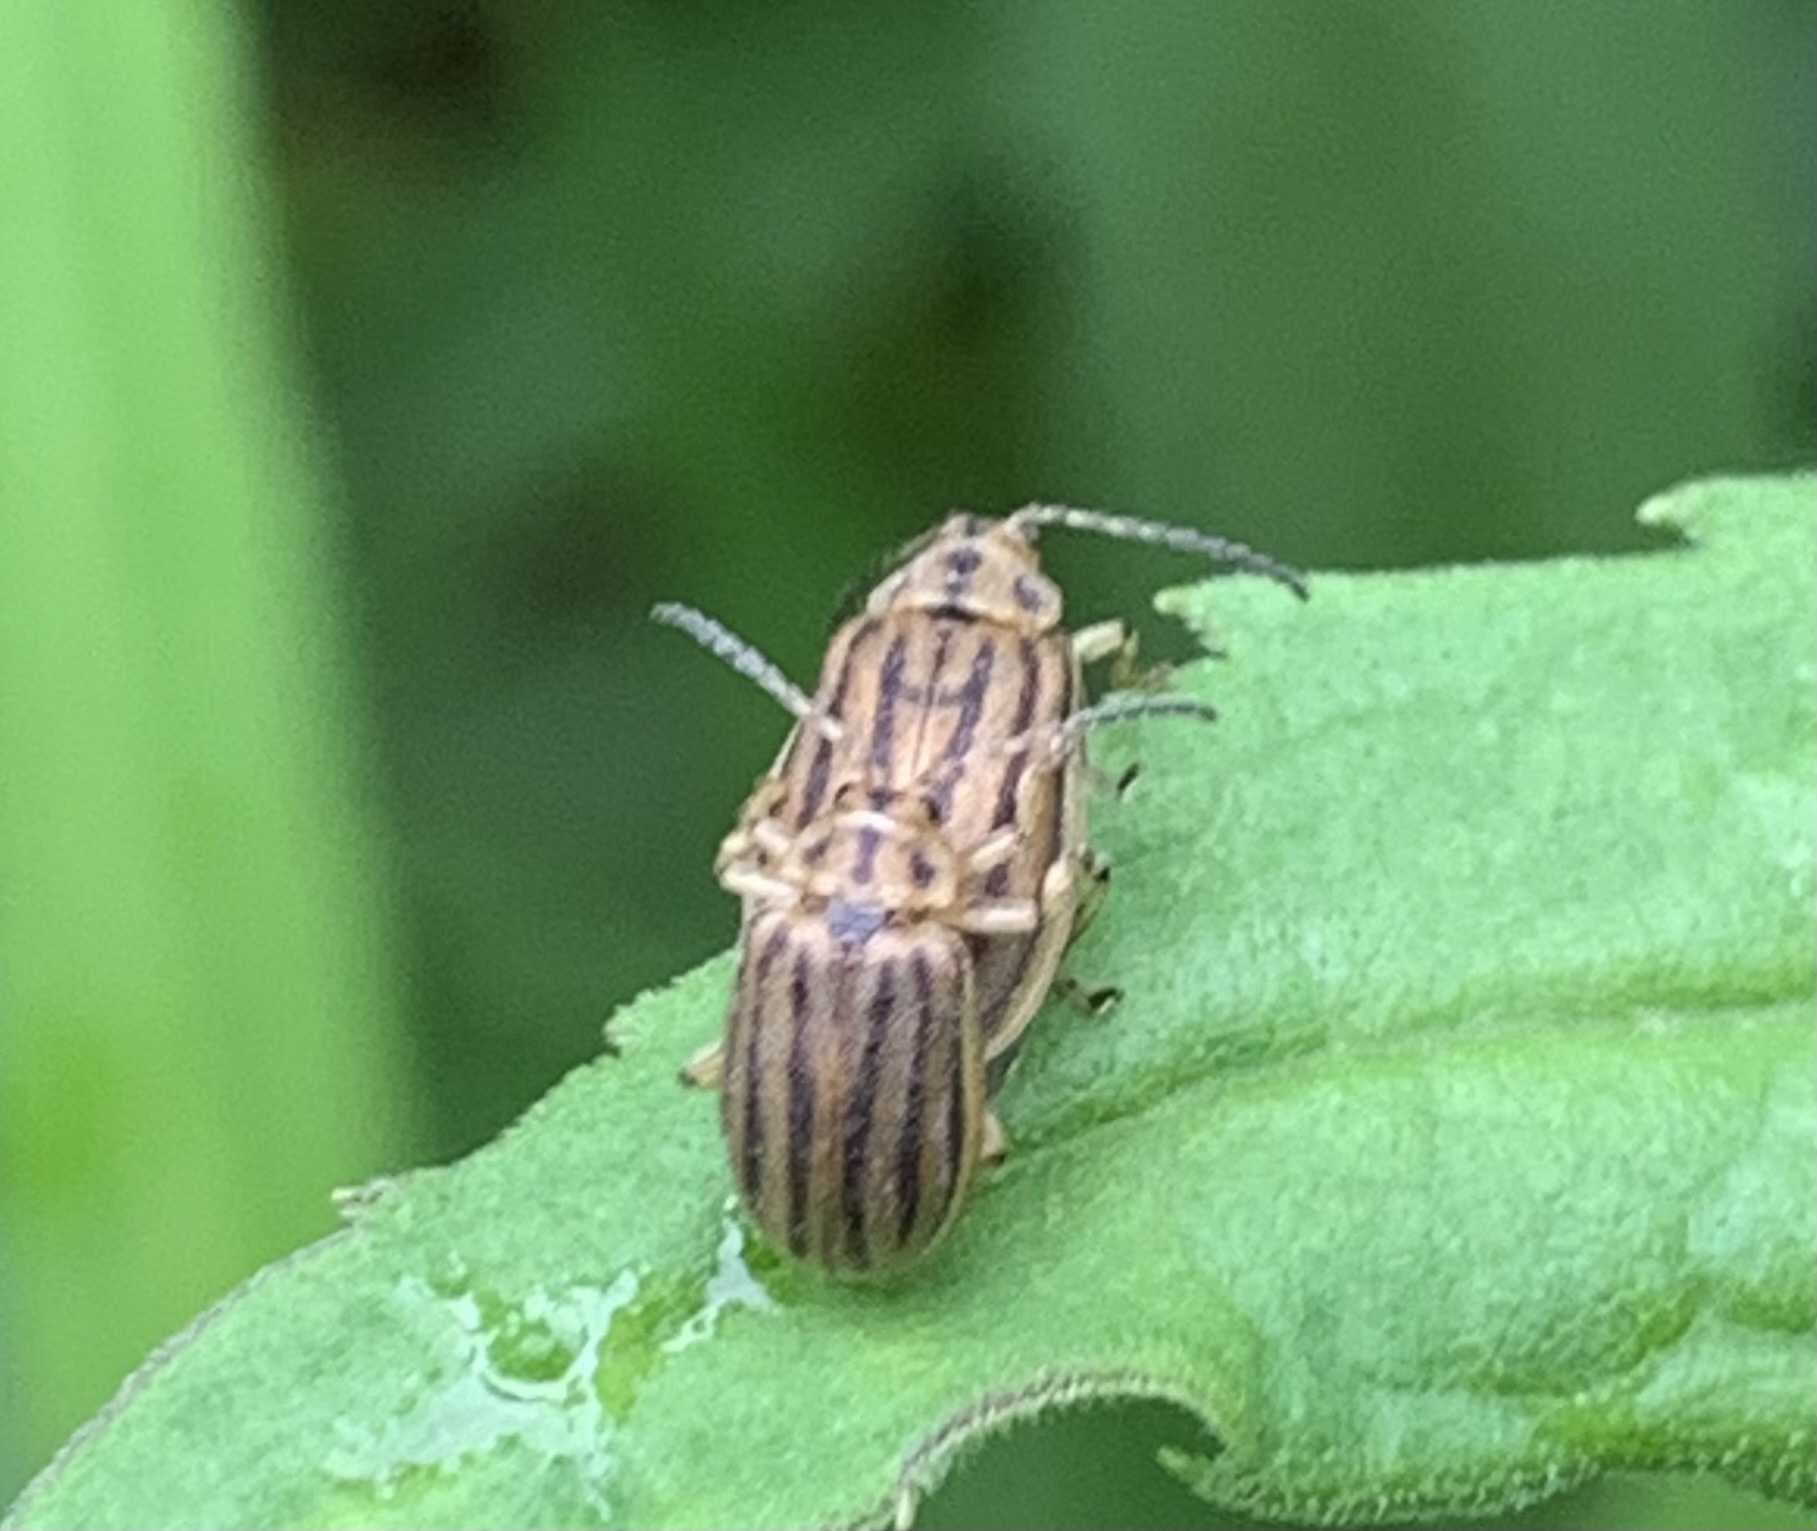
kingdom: Animalia
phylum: Arthropoda
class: Insecta
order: Coleoptera
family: Chrysomelidae
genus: Ophraella
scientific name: Ophraella conferta
